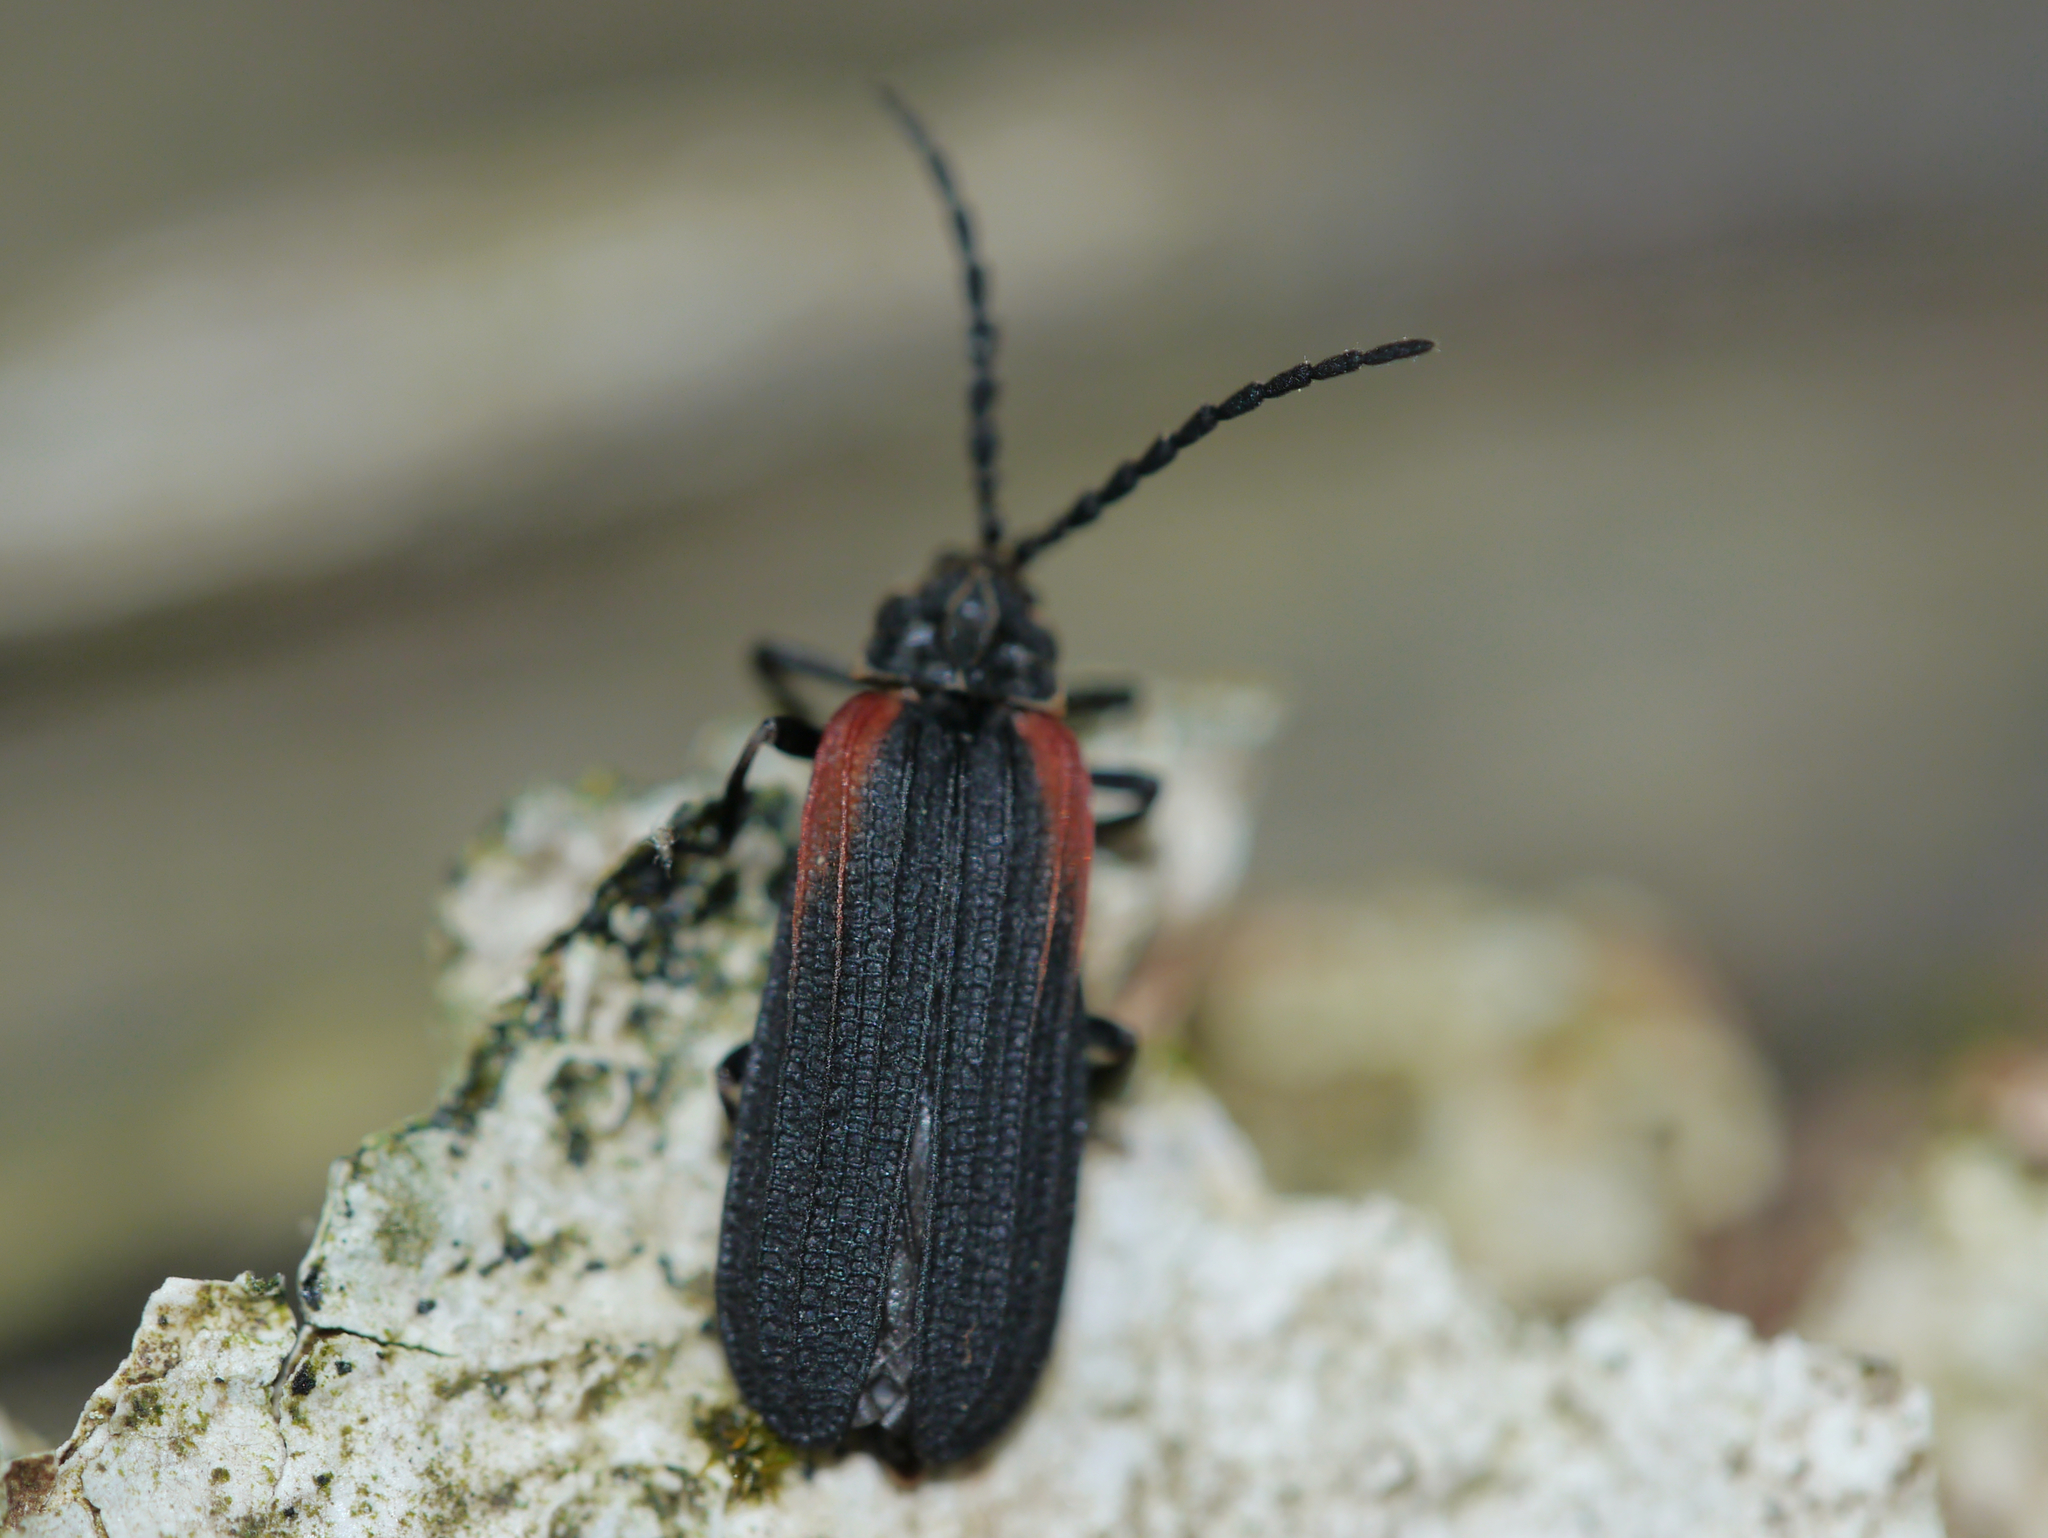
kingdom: Animalia
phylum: Arthropoda
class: Insecta
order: Coleoptera
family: Lycidae
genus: Greenarus
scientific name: Greenarus thoracicus
